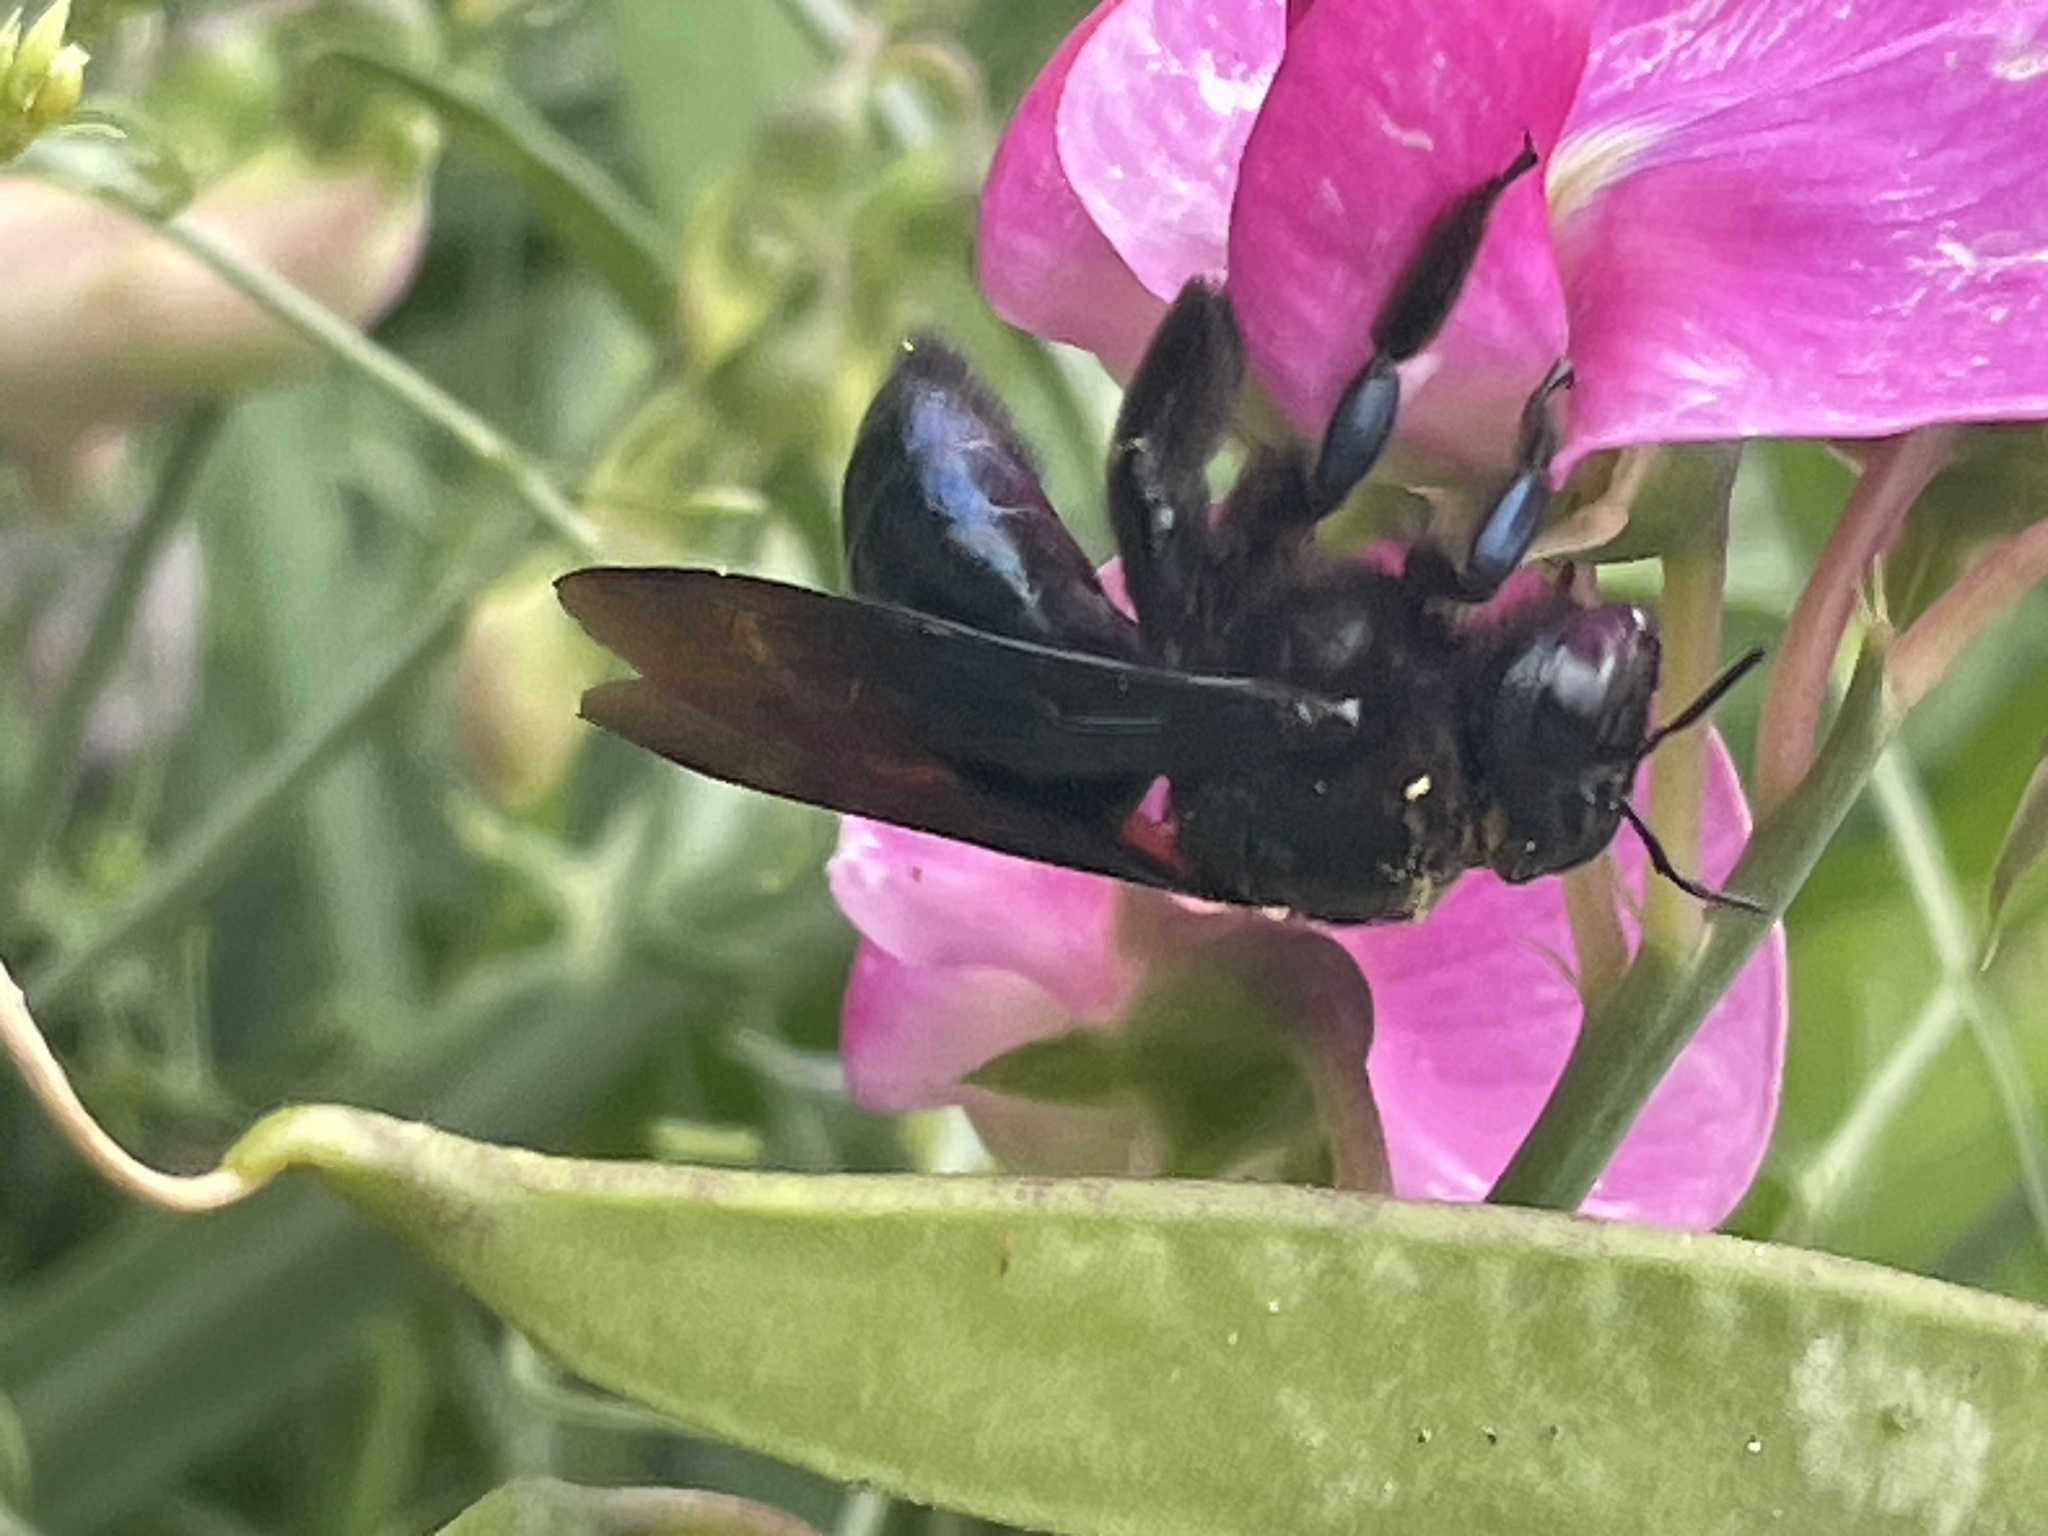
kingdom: Animalia
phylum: Arthropoda
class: Insecta
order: Hymenoptera
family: Apidae
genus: Xylocopa
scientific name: Xylocopa californica
